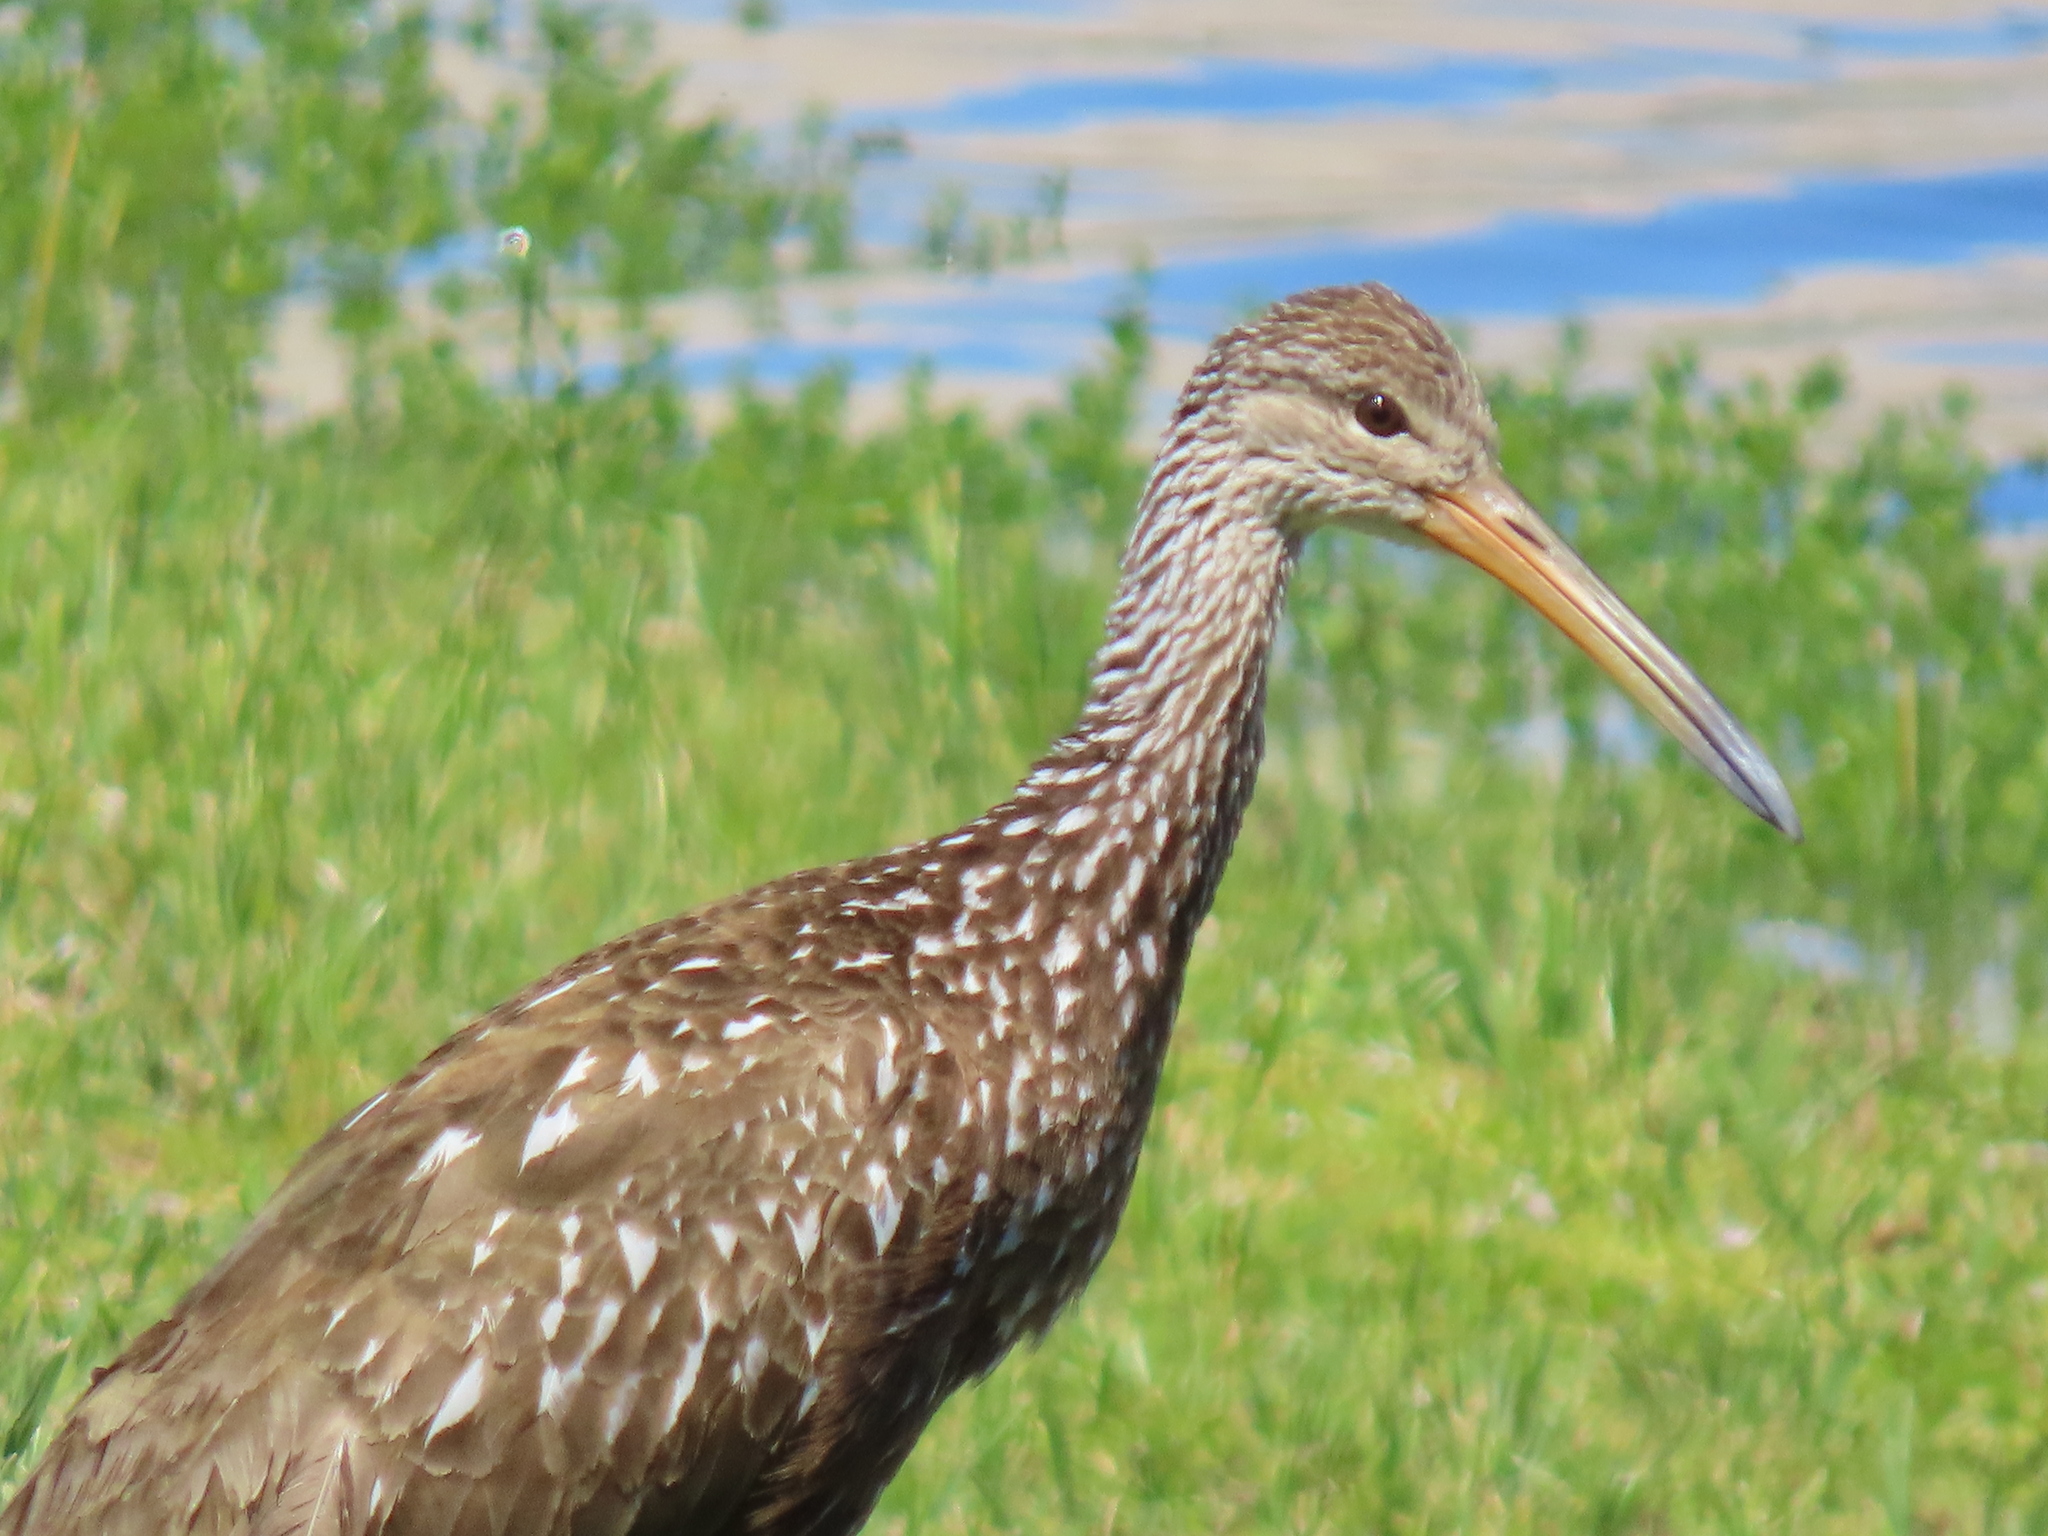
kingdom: Animalia
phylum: Chordata
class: Aves
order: Gruiformes
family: Aramidae
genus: Aramus
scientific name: Aramus guarauna
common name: Limpkin
